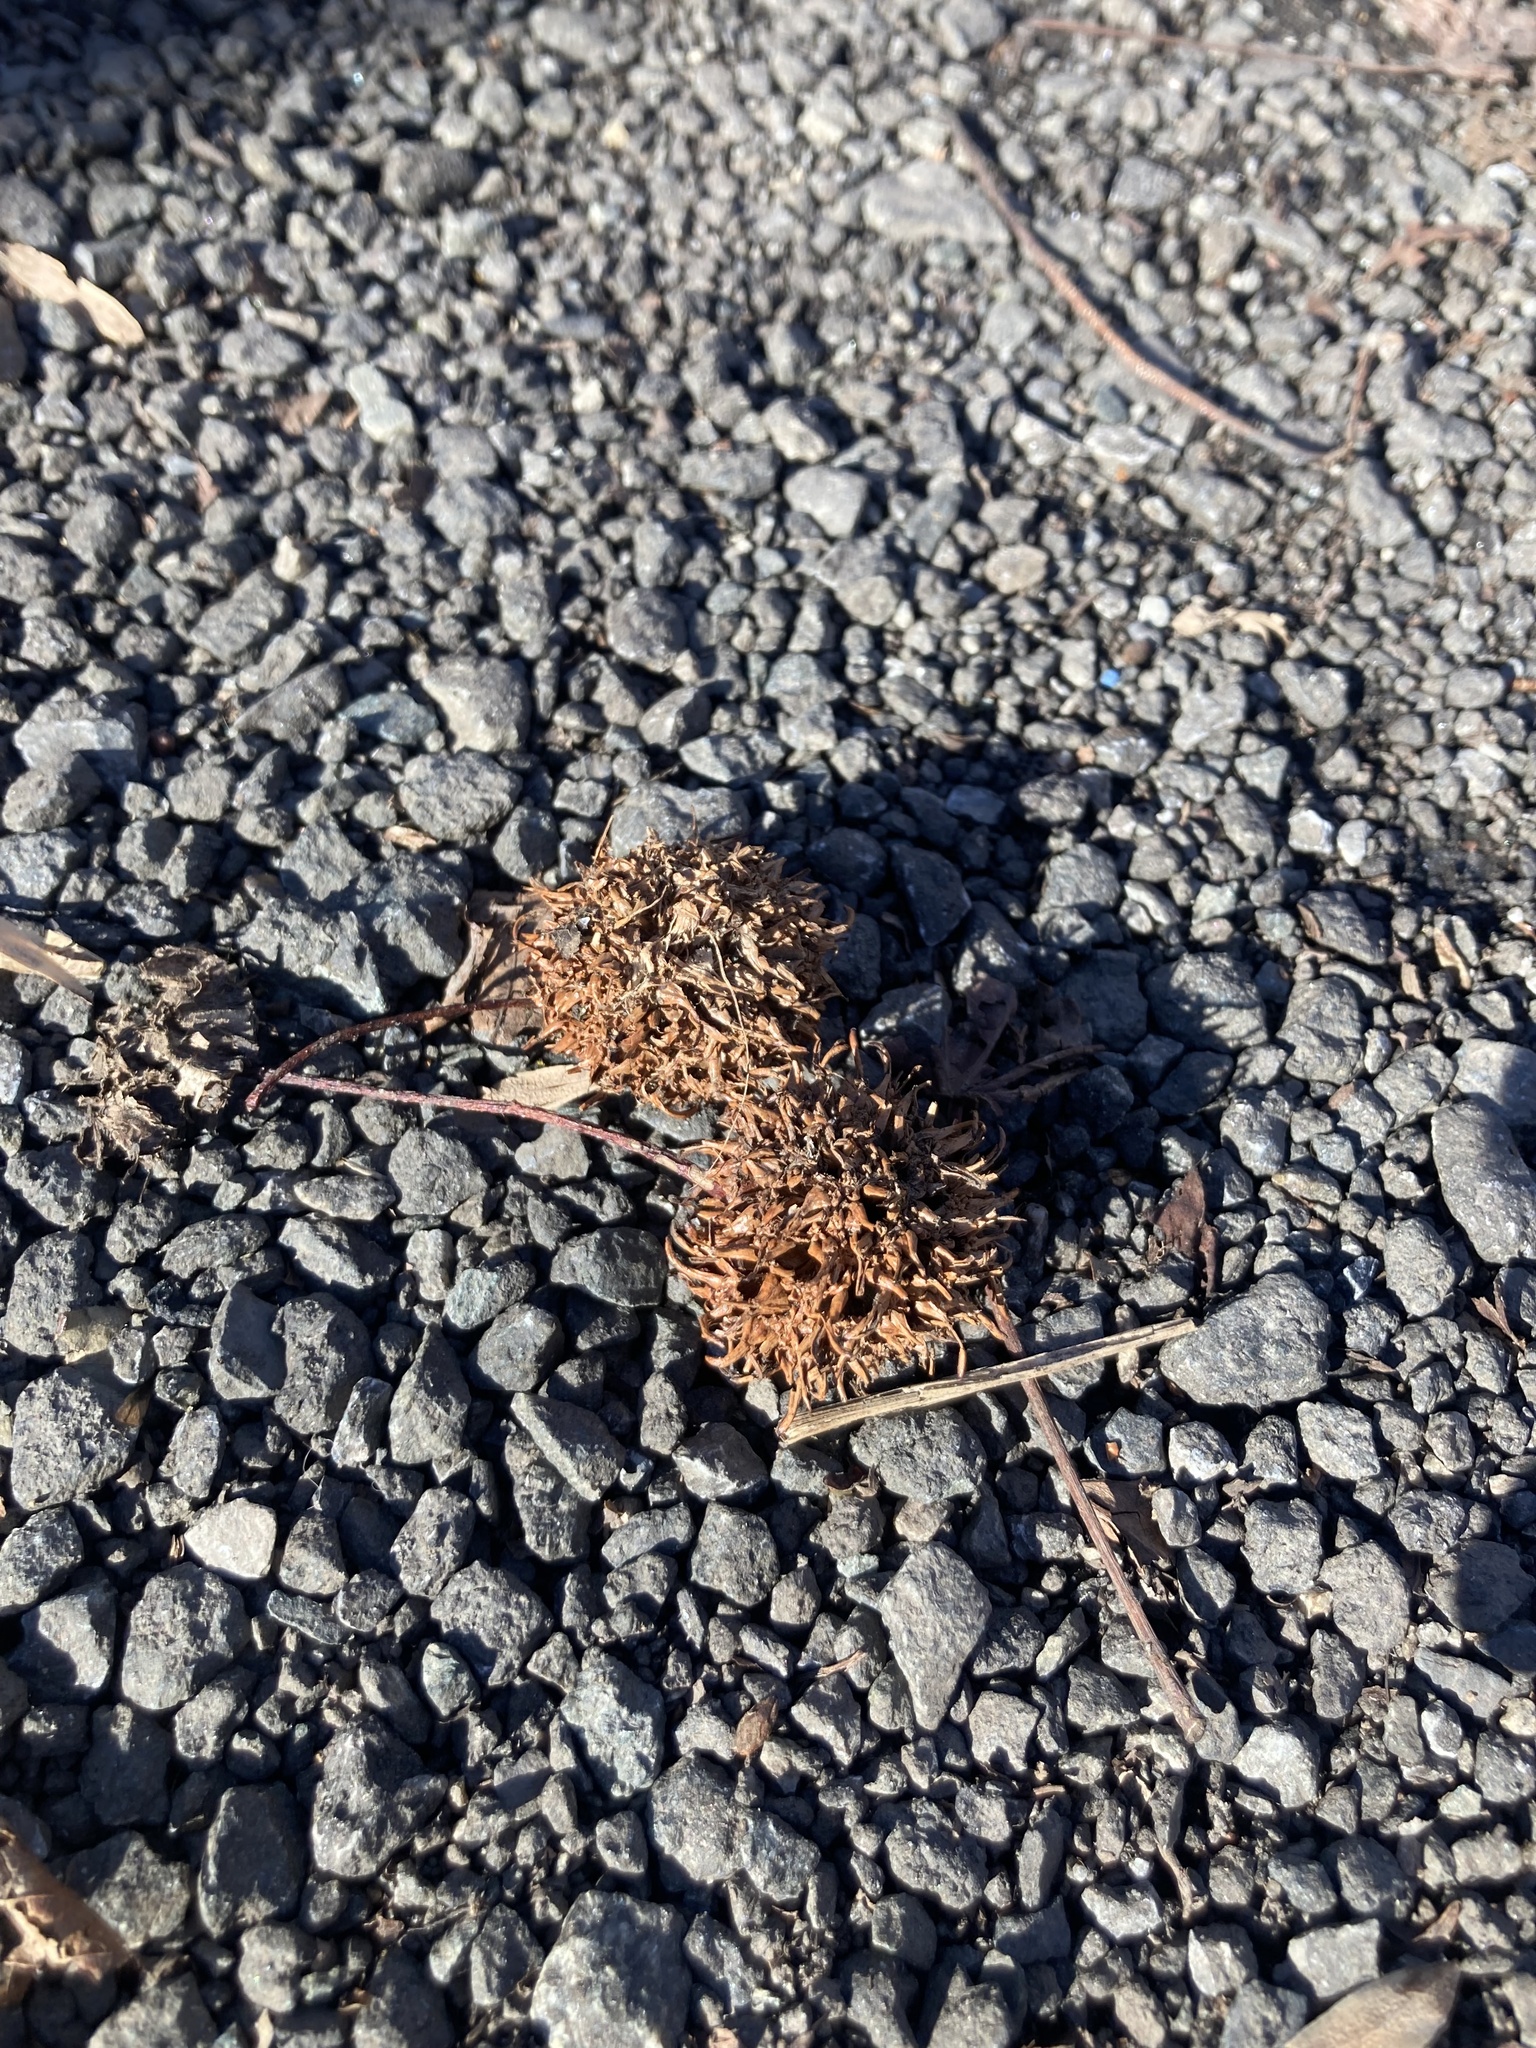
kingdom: Plantae
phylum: Tracheophyta
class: Magnoliopsida
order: Saxifragales
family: Altingiaceae
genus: Liquidambar
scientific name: Liquidambar styraciflua
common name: Sweet gum
